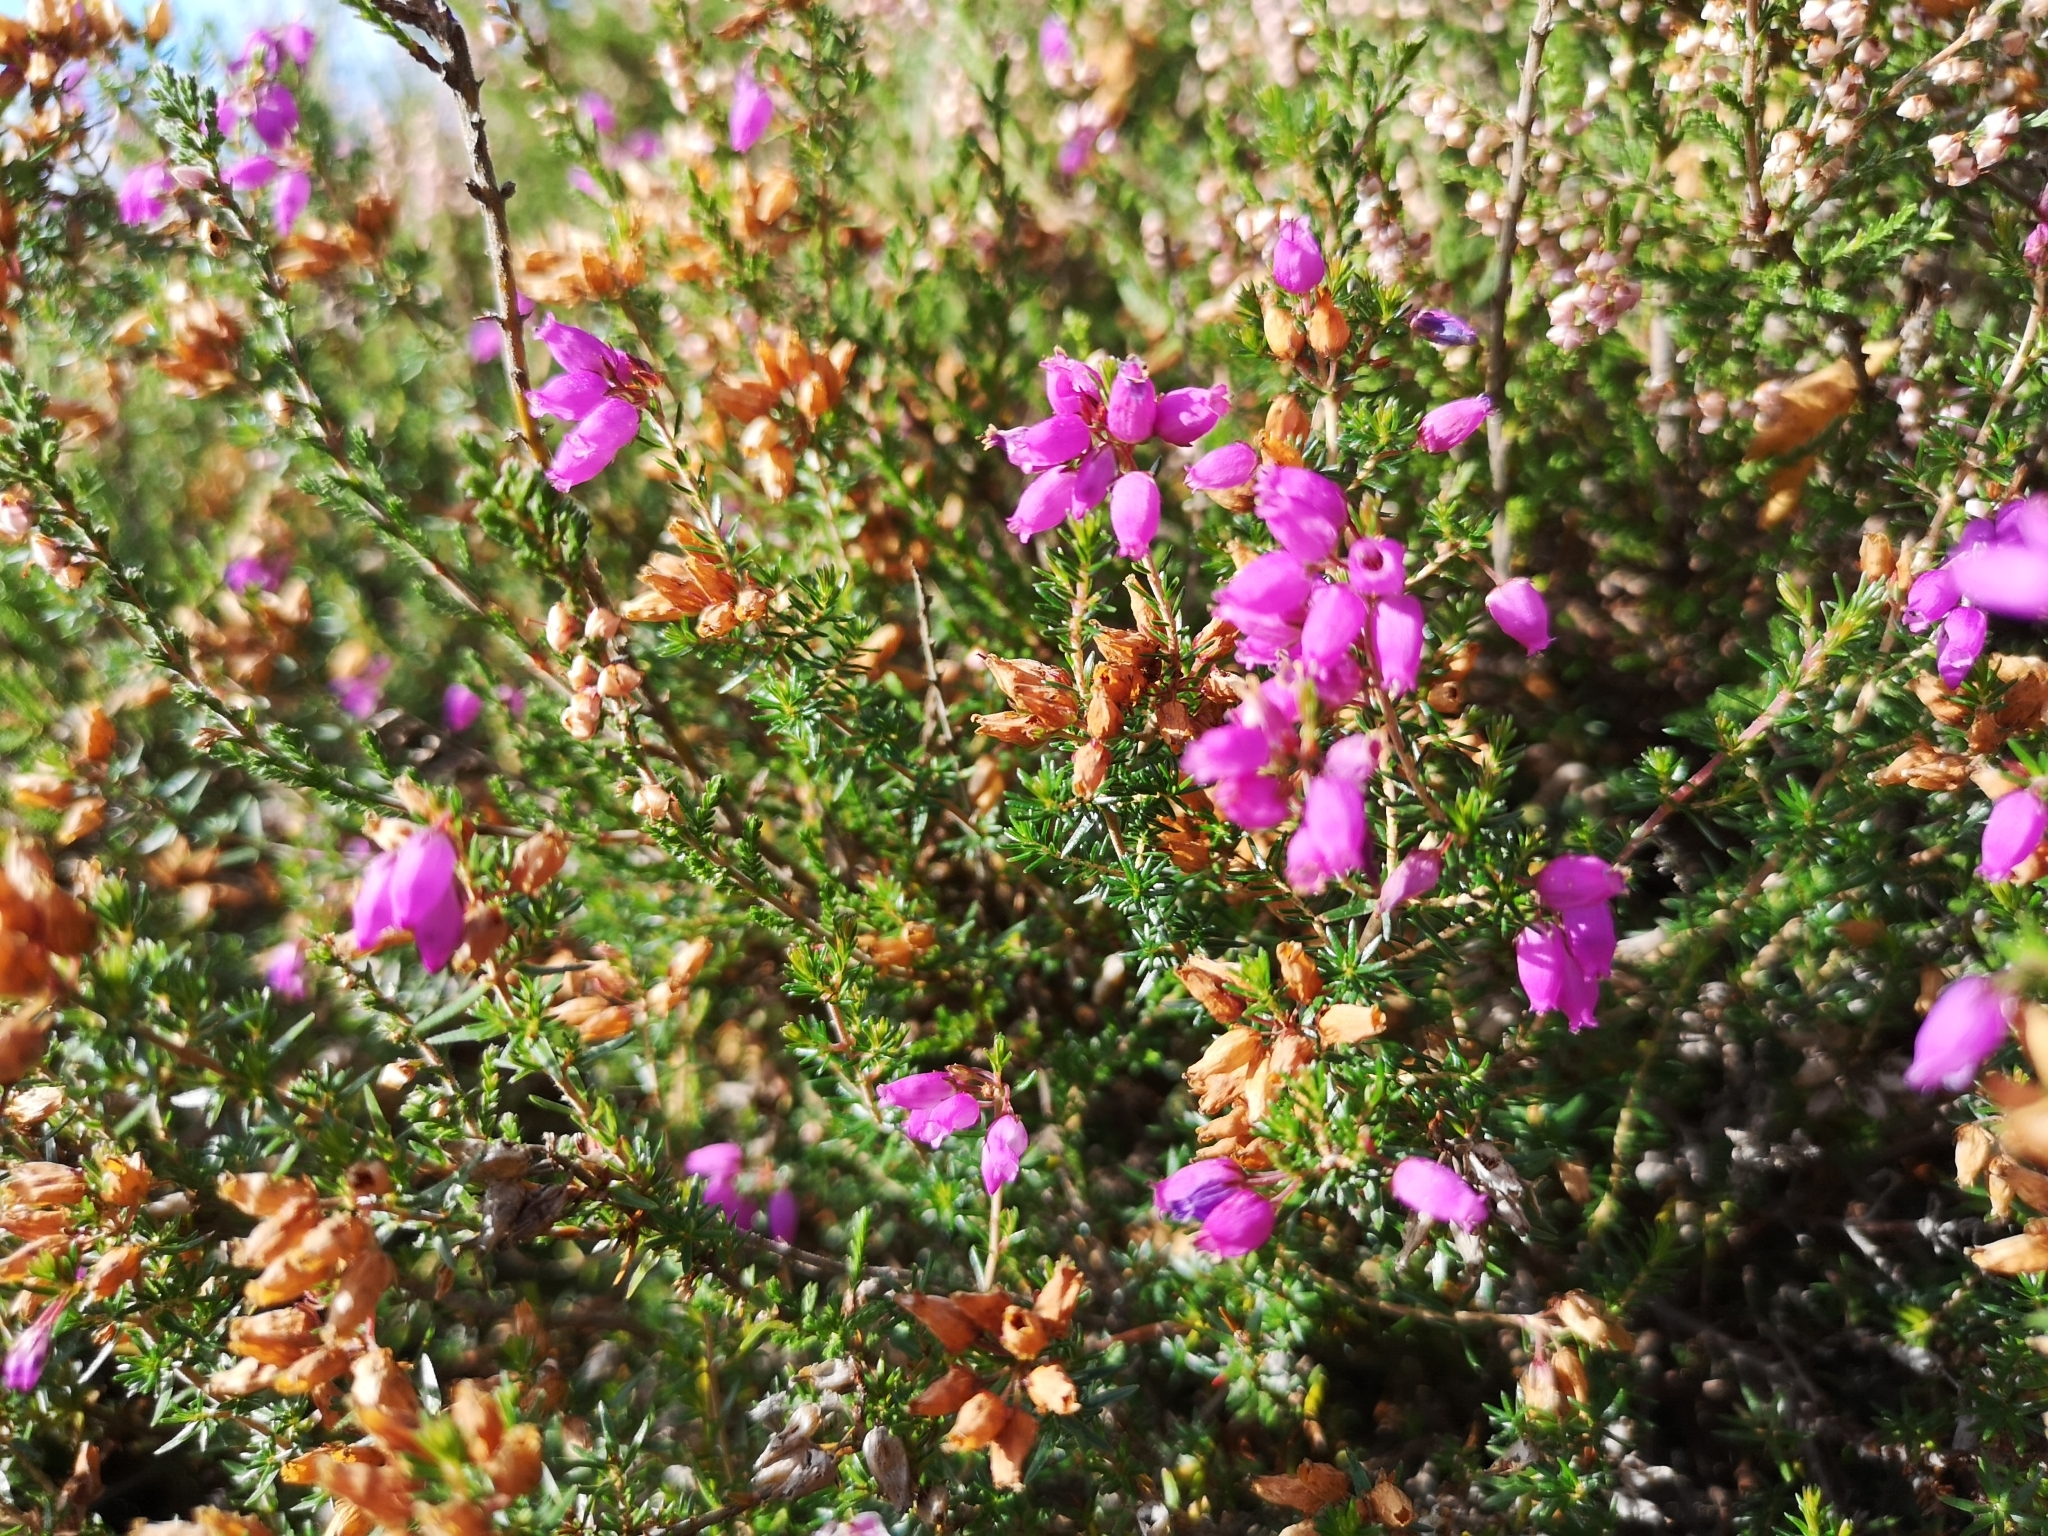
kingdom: Plantae
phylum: Tracheophyta
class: Magnoliopsida
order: Ericales
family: Ericaceae
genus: Erica
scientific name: Erica cinerea
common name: Bell heather
